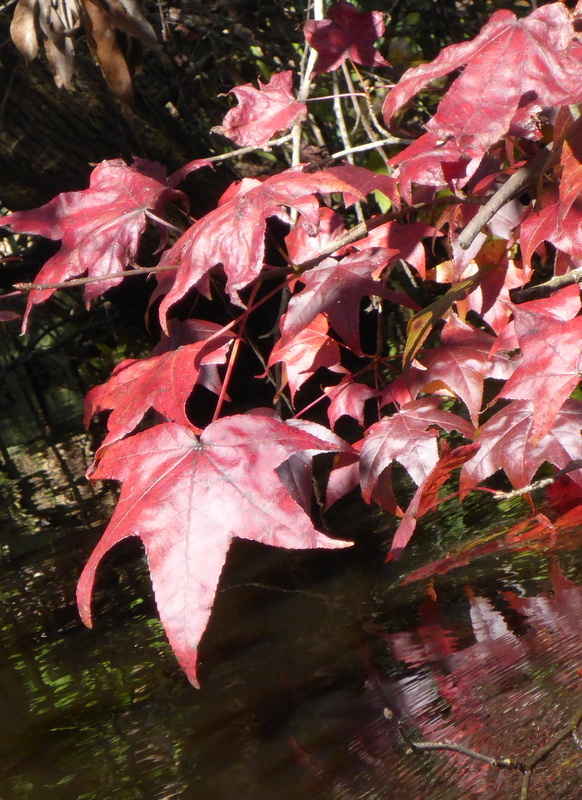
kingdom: Plantae
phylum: Tracheophyta
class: Magnoliopsida
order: Saxifragales
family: Altingiaceae
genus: Liquidambar
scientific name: Liquidambar styraciflua
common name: Sweet gum
